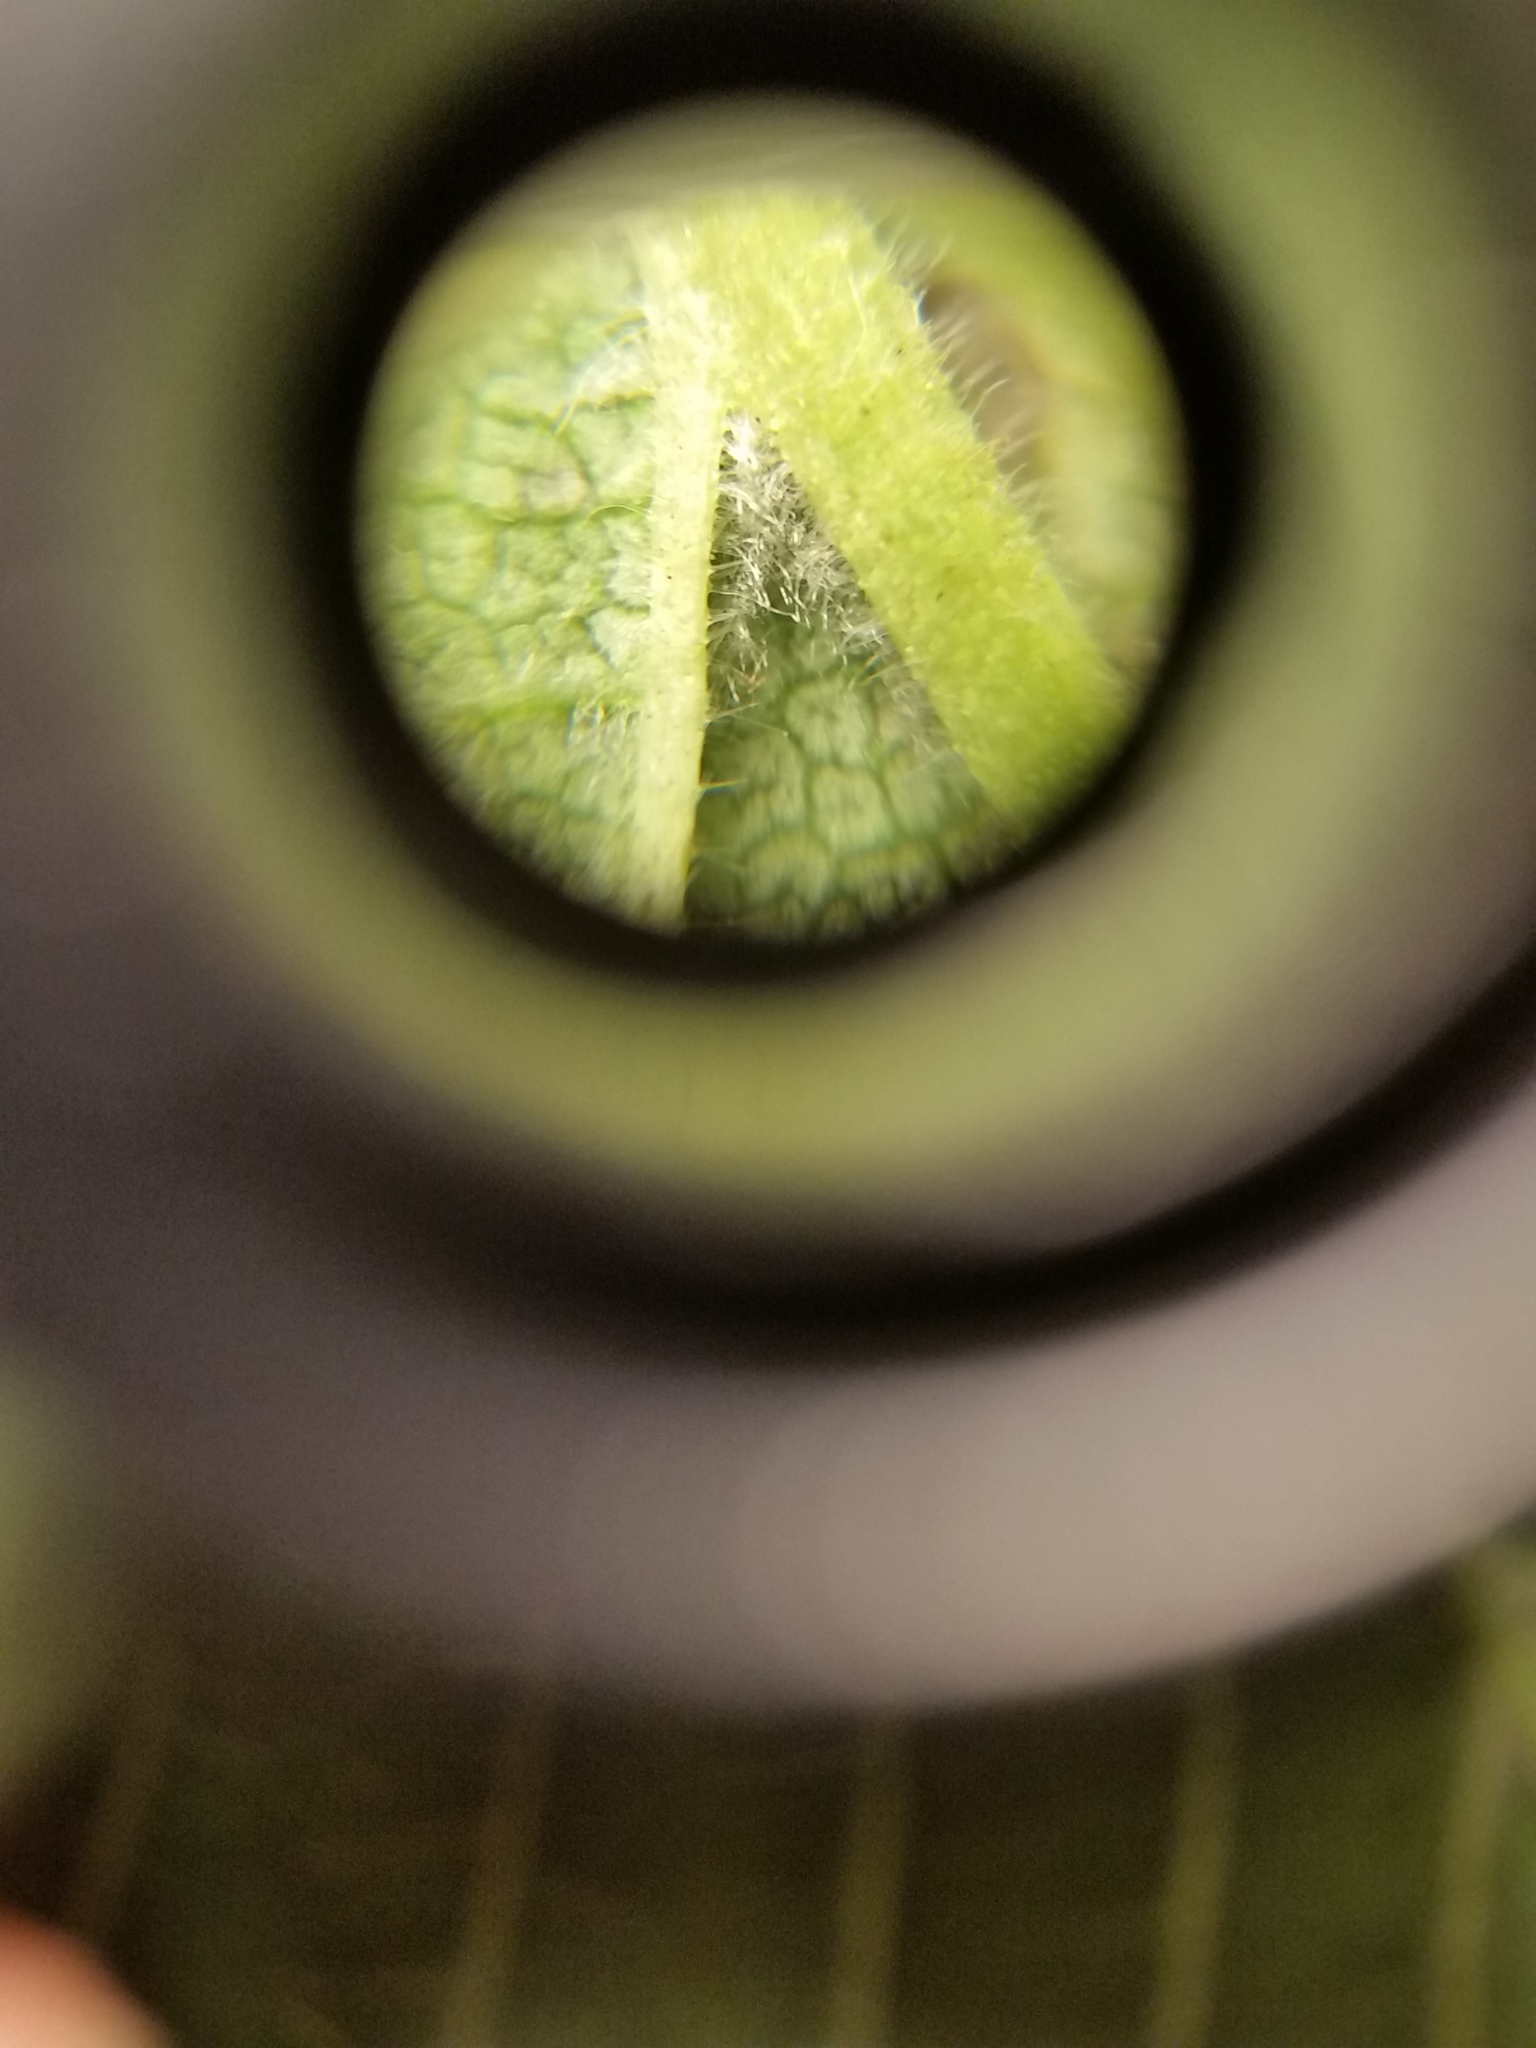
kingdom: Plantae
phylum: Tracheophyta
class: Magnoliopsida
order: Rosales
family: Ulmaceae
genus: Ulmus
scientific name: Ulmus rubra
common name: Slippery elm
